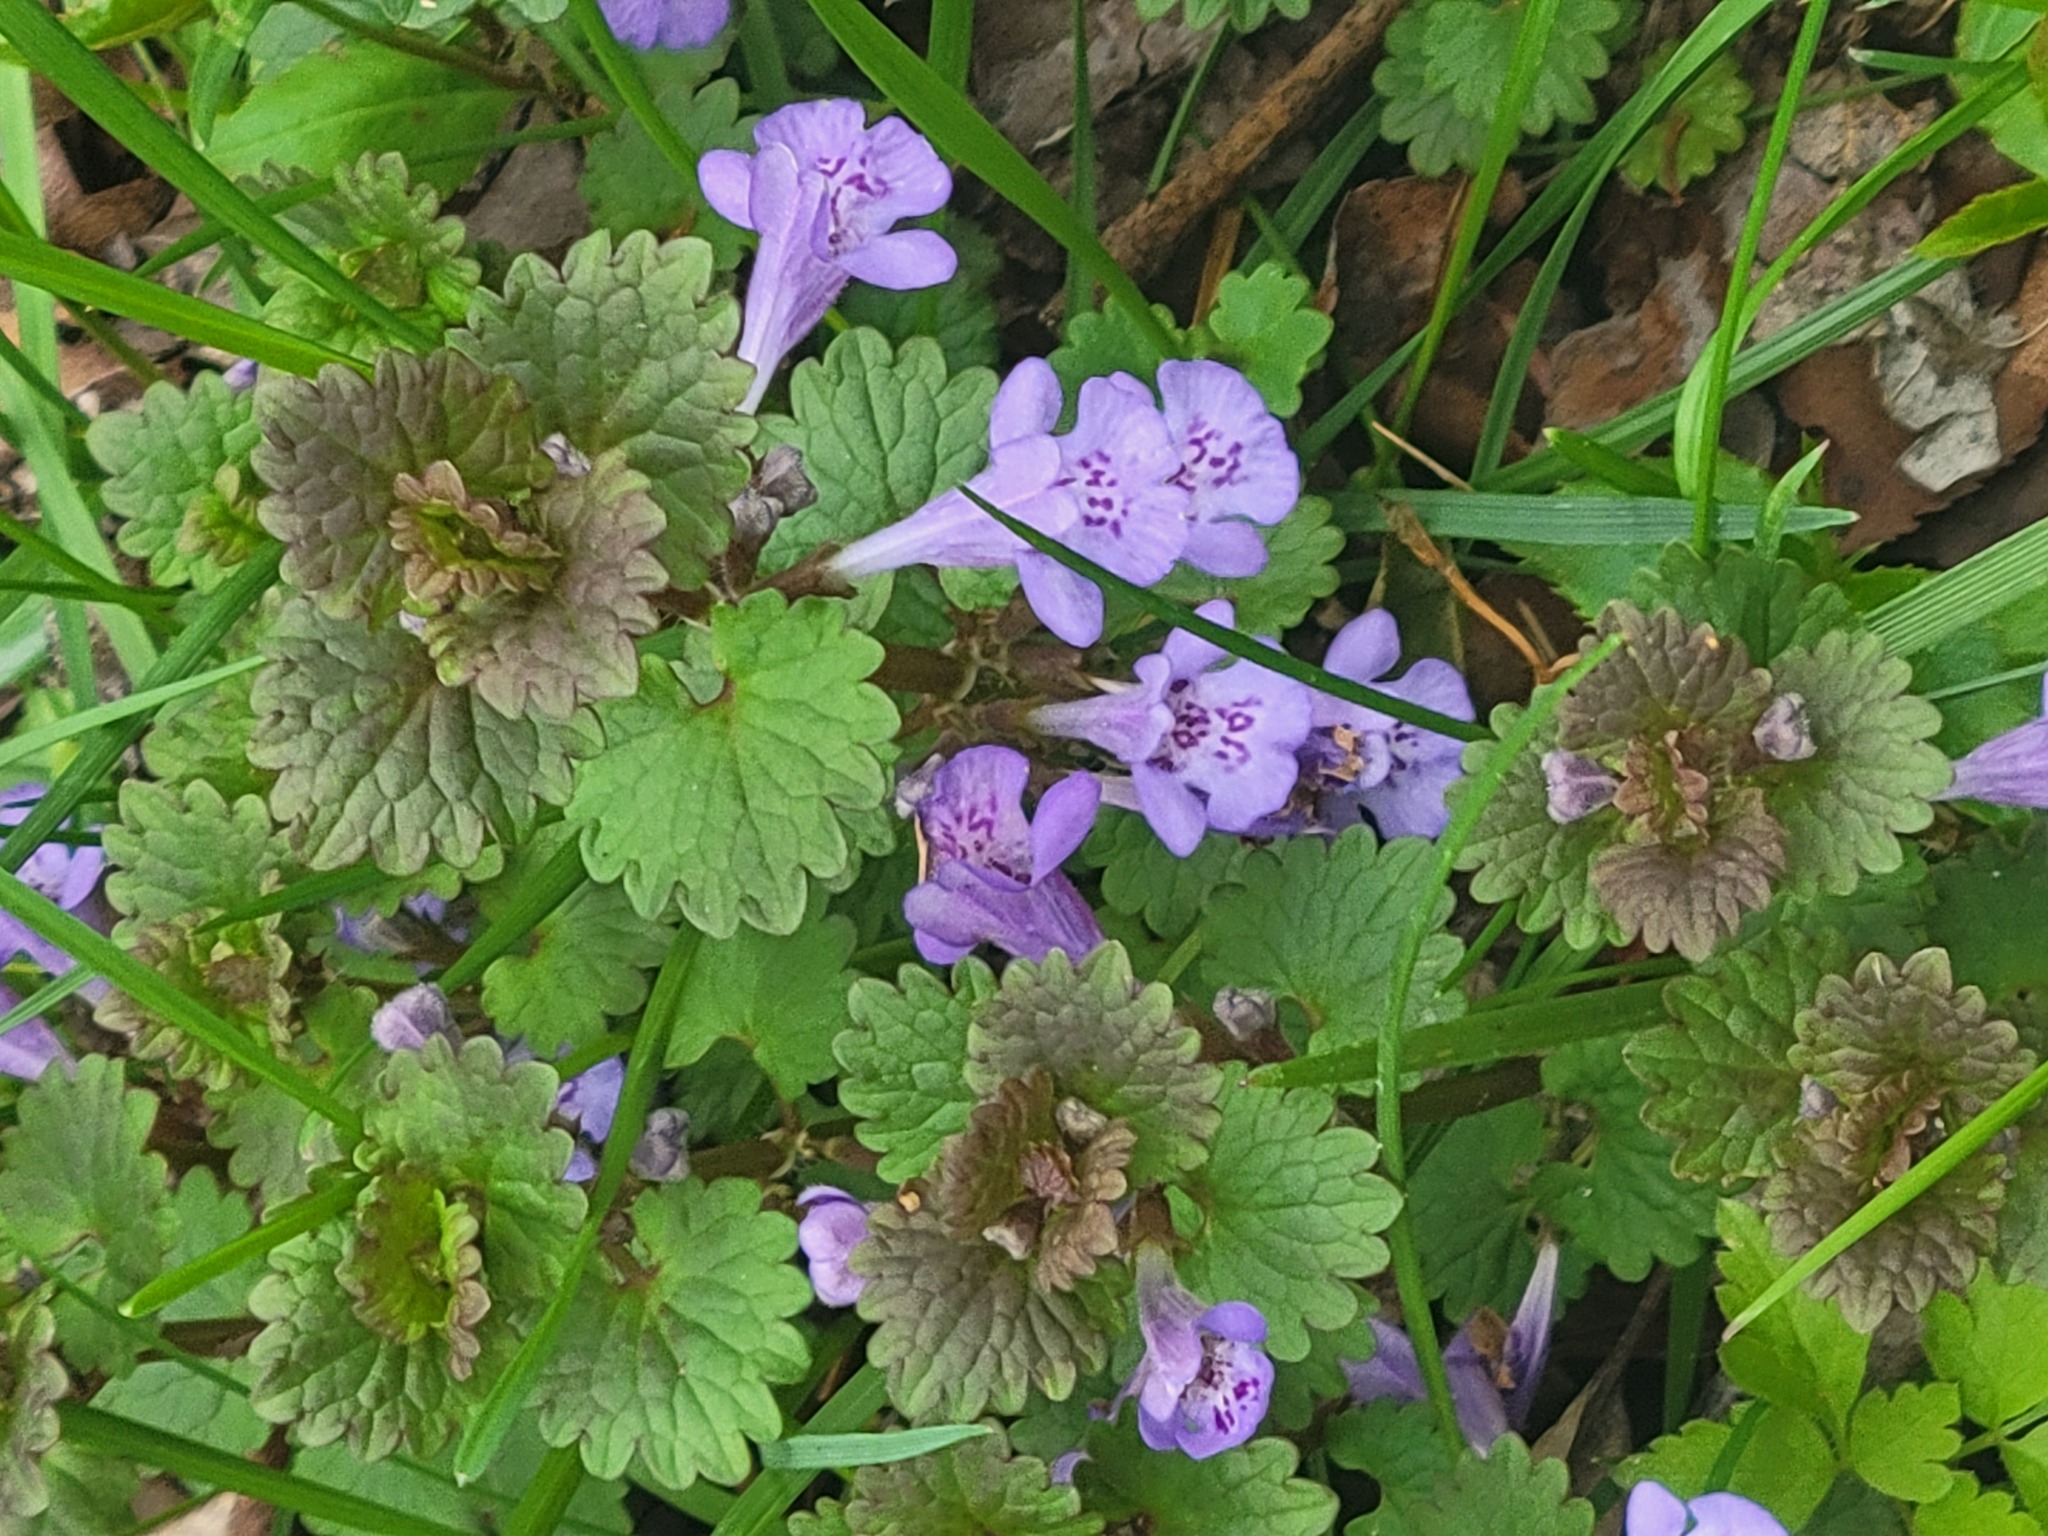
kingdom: Plantae
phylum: Tracheophyta
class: Magnoliopsida
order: Lamiales
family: Lamiaceae
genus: Glechoma
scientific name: Glechoma hederacea
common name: Ground ivy
